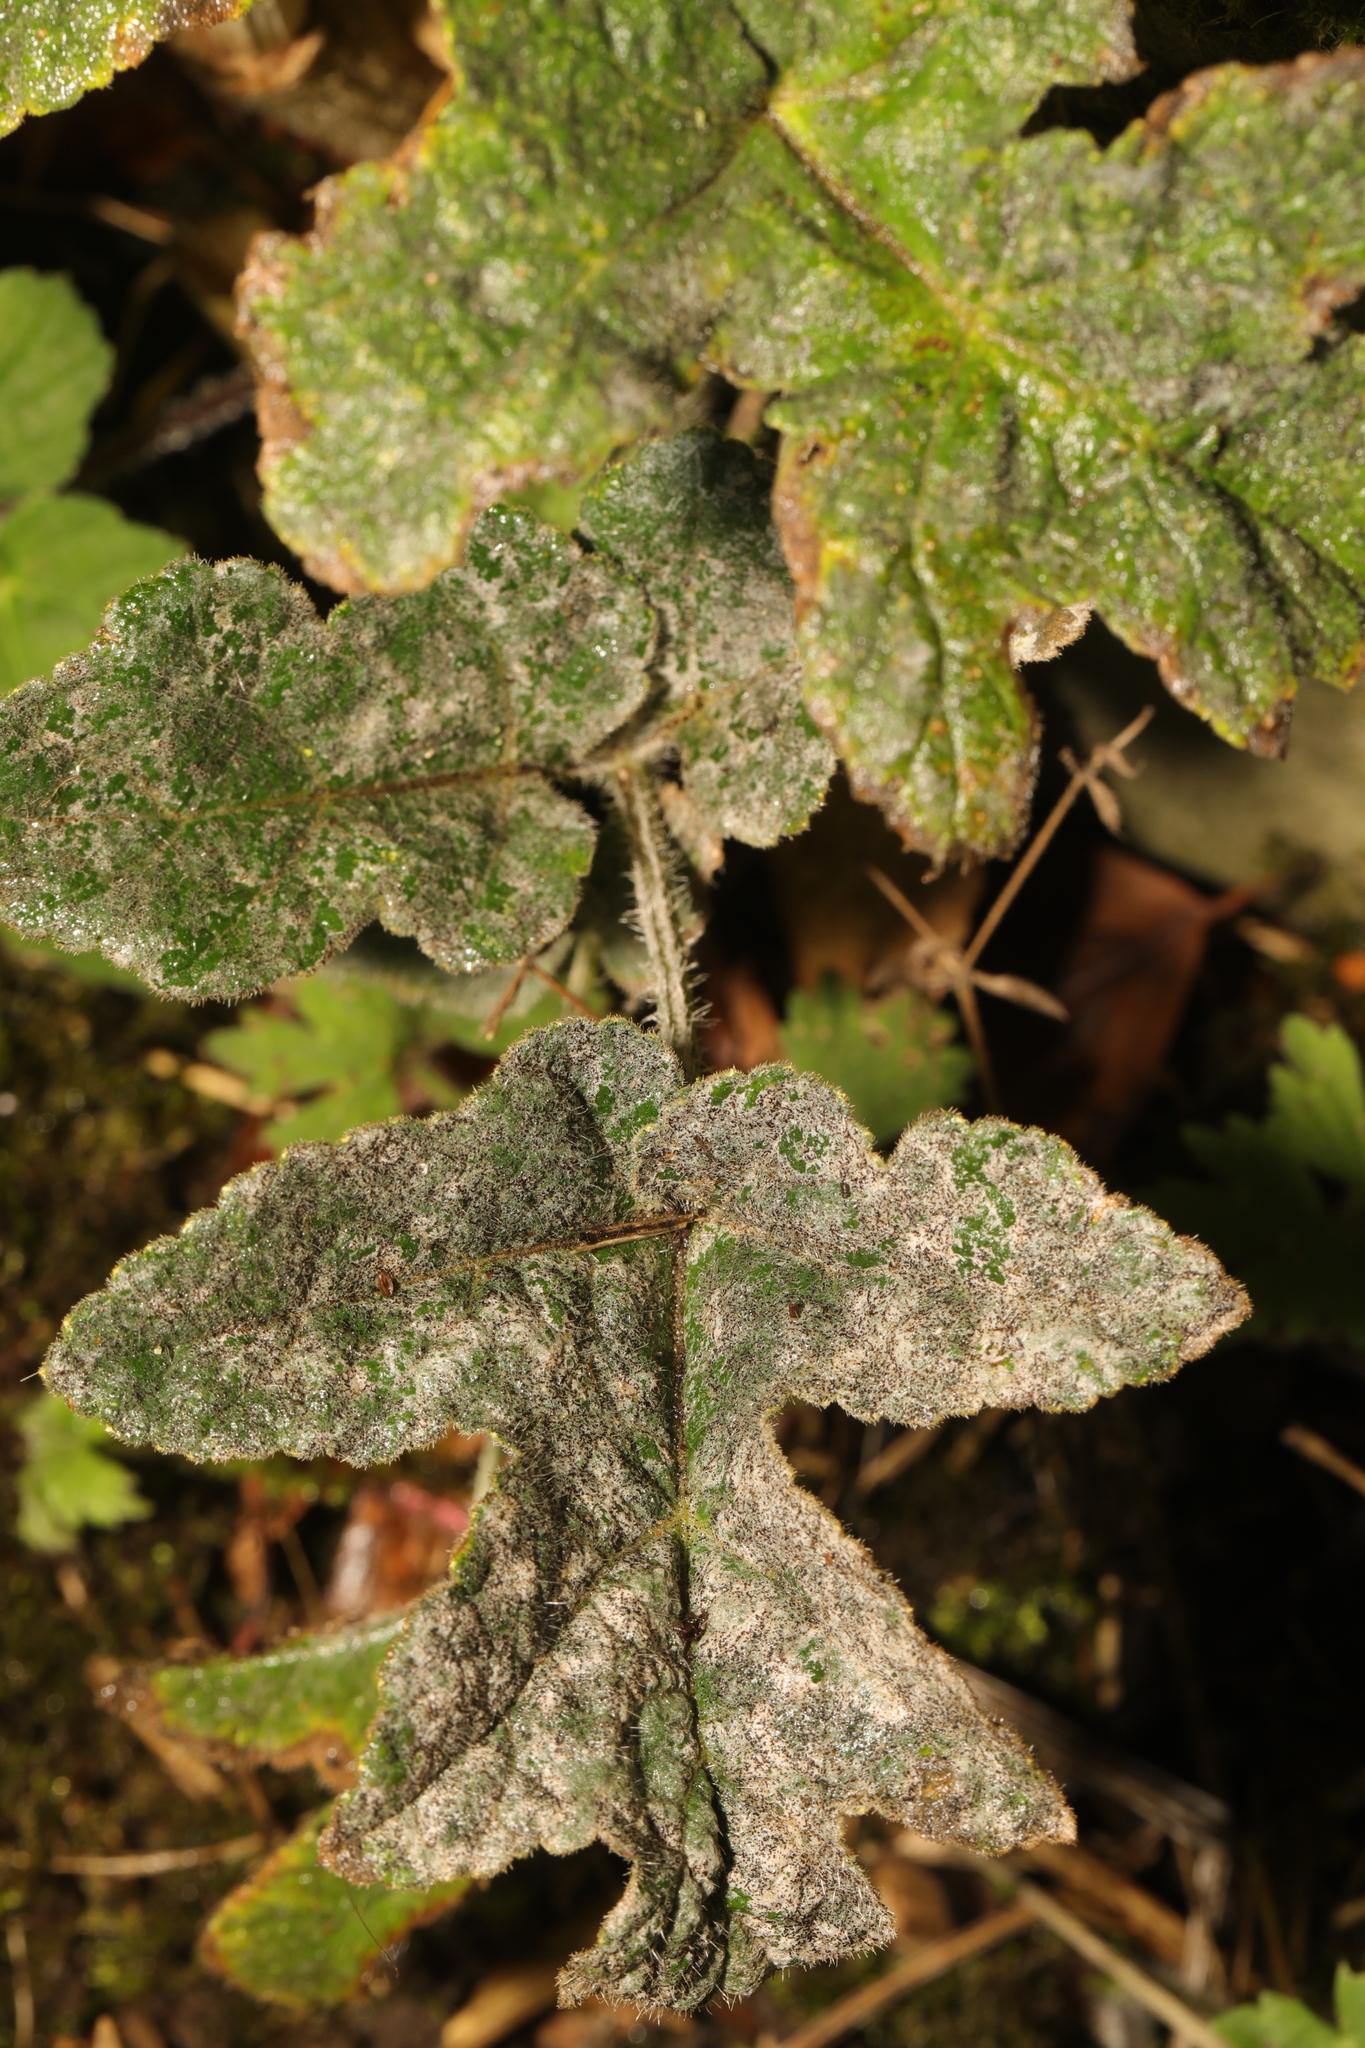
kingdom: Plantae
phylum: Tracheophyta
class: Magnoliopsida
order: Apiales
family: Apiaceae
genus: Heracleum
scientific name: Heracleum sphondylium
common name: Hogweed
